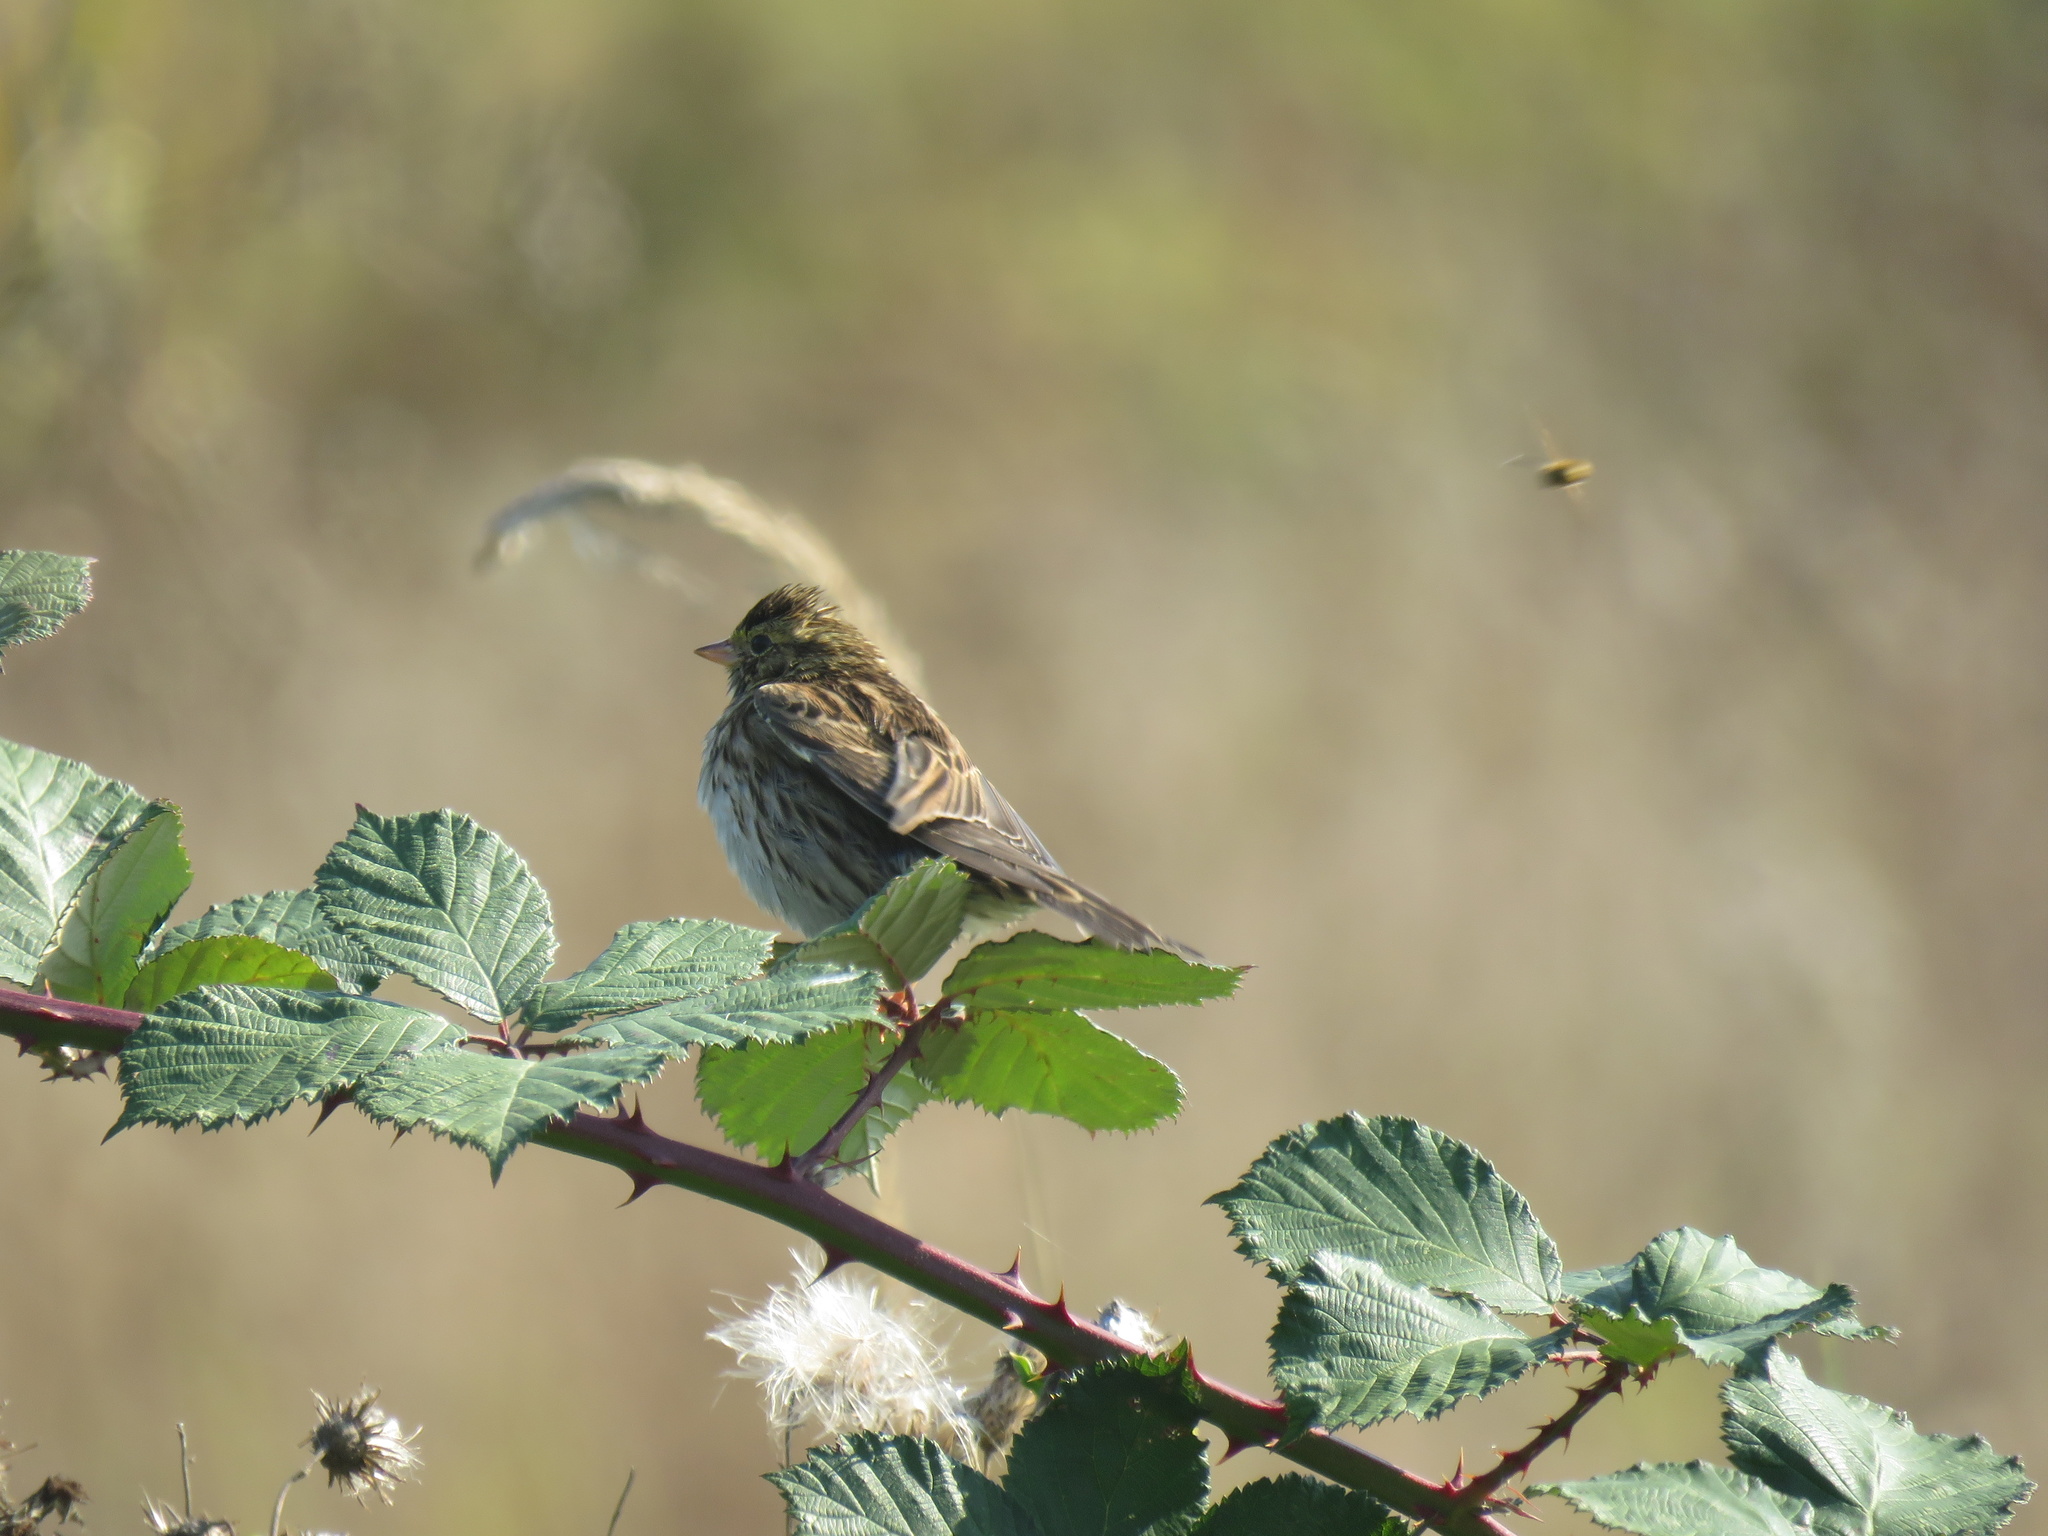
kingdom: Animalia
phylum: Chordata
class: Aves
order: Passeriformes
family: Passerellidae
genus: Passerculus
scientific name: Passerculus sandwichensis
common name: Savannah sparrow
